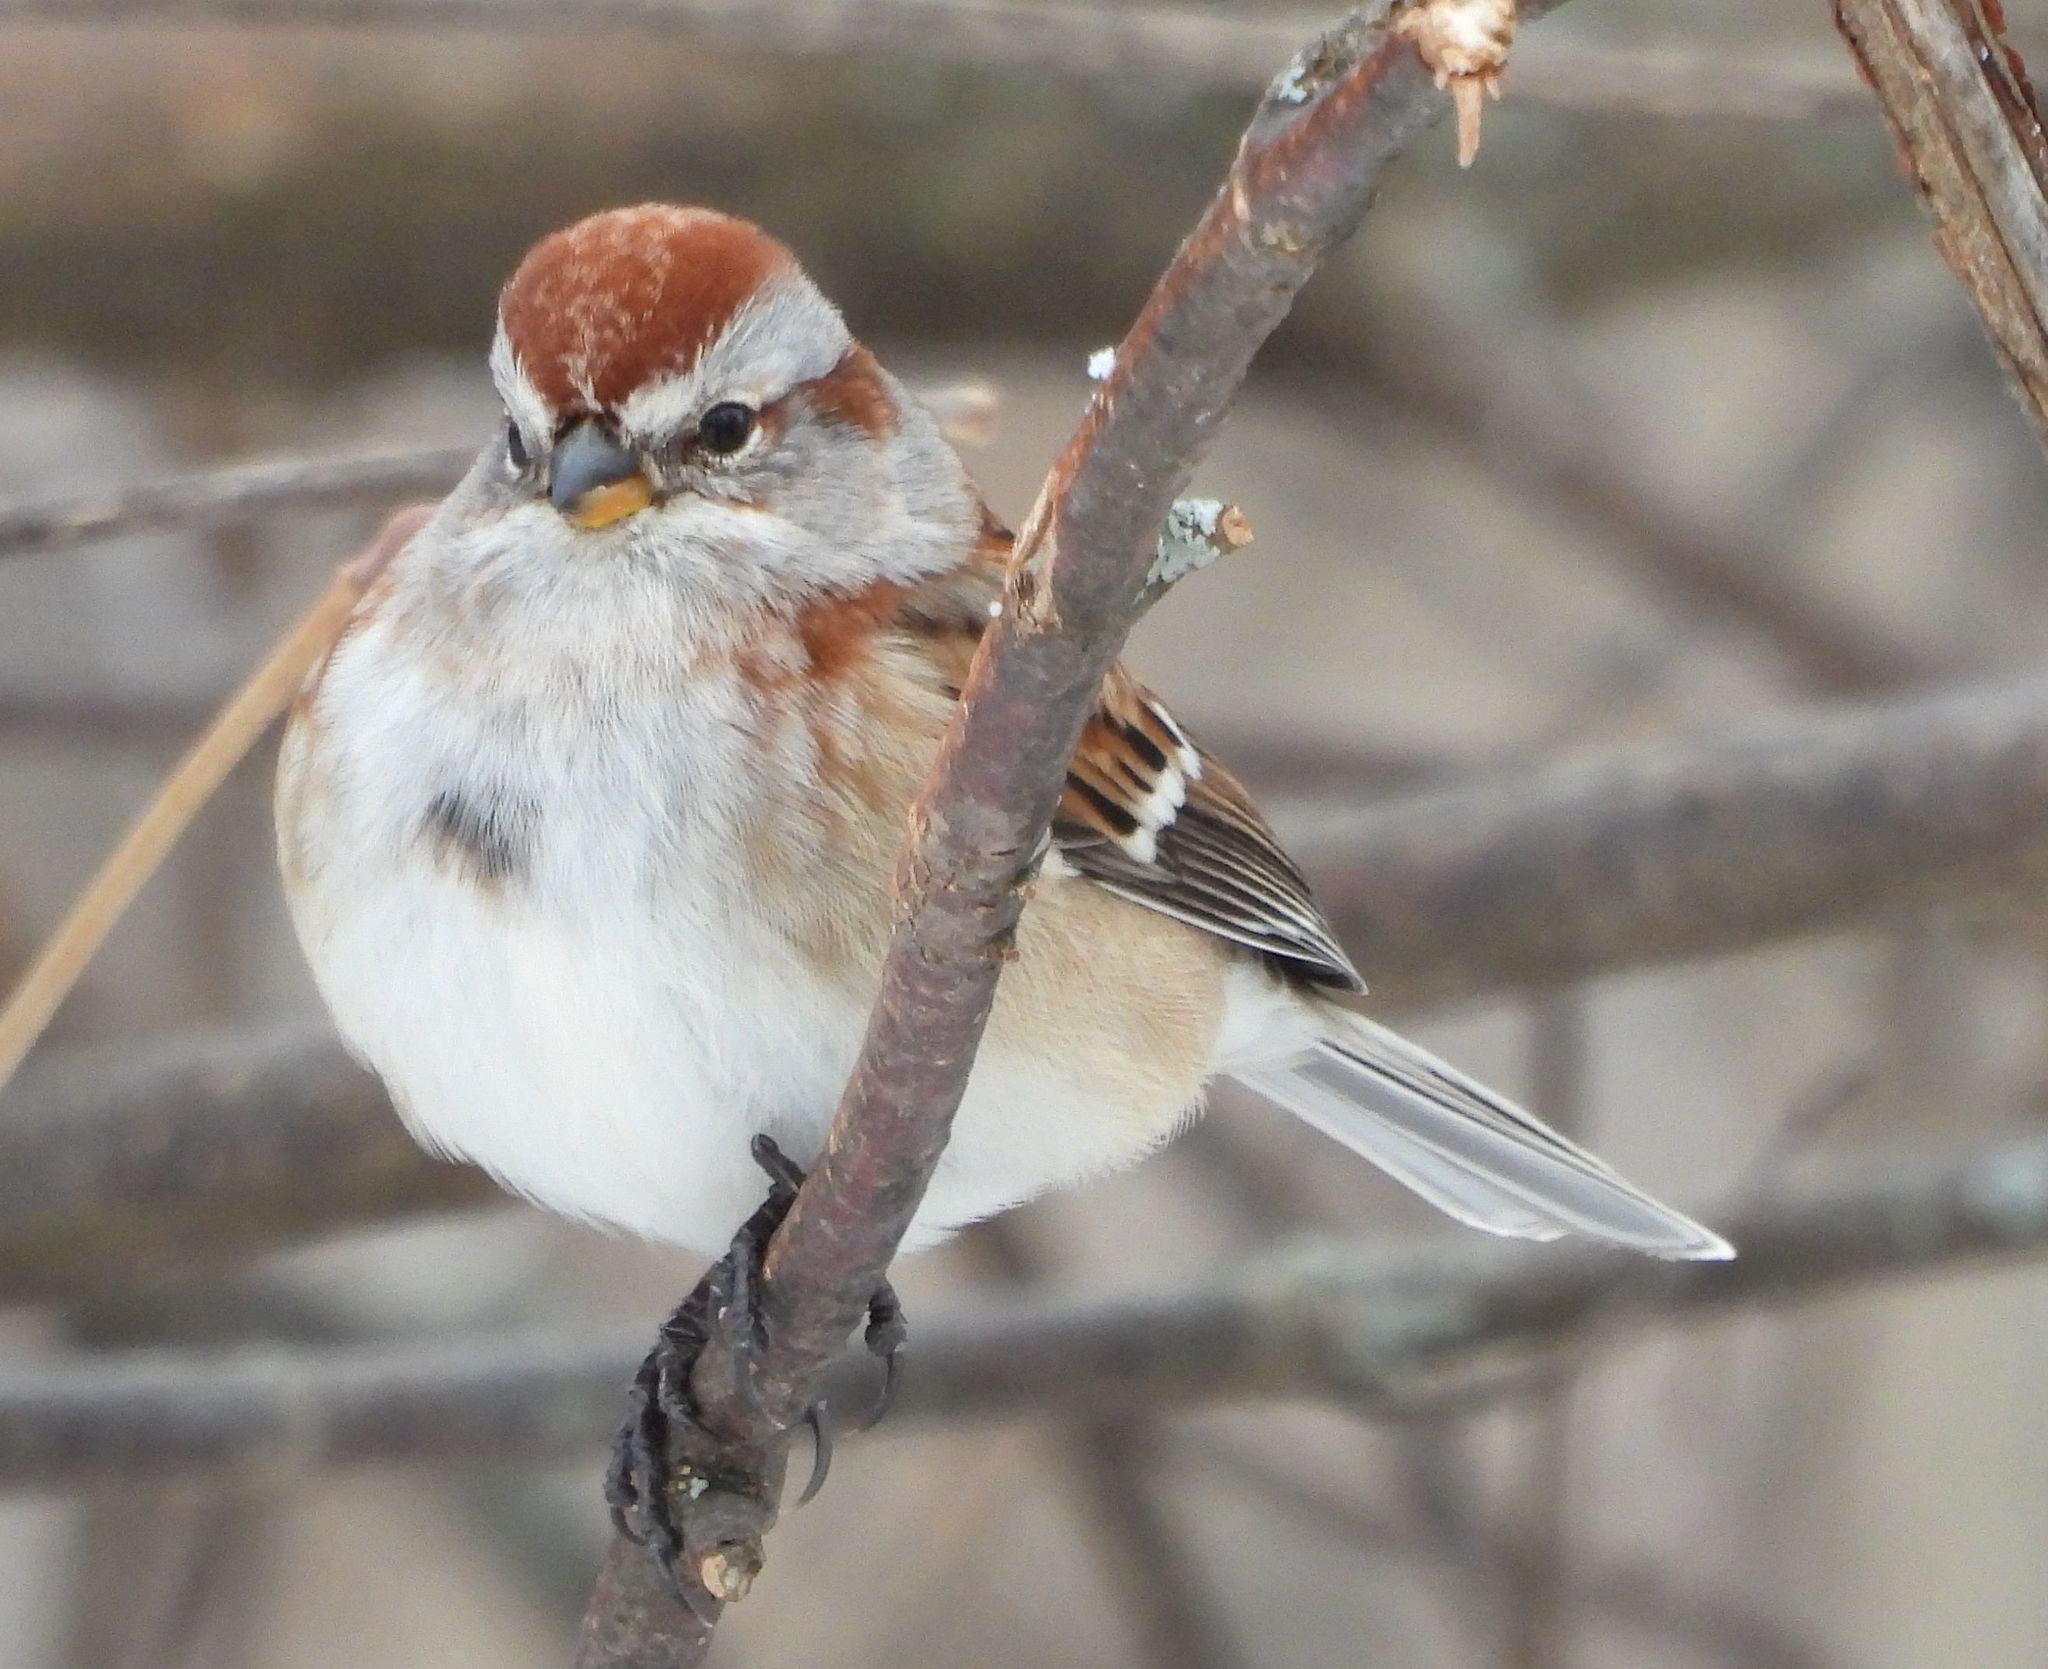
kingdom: Animalia
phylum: Chordata
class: Aves
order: Passeriformes
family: Passerellidae
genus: Spizelloides
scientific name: Spizelloides arborea
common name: American tree sparrow
